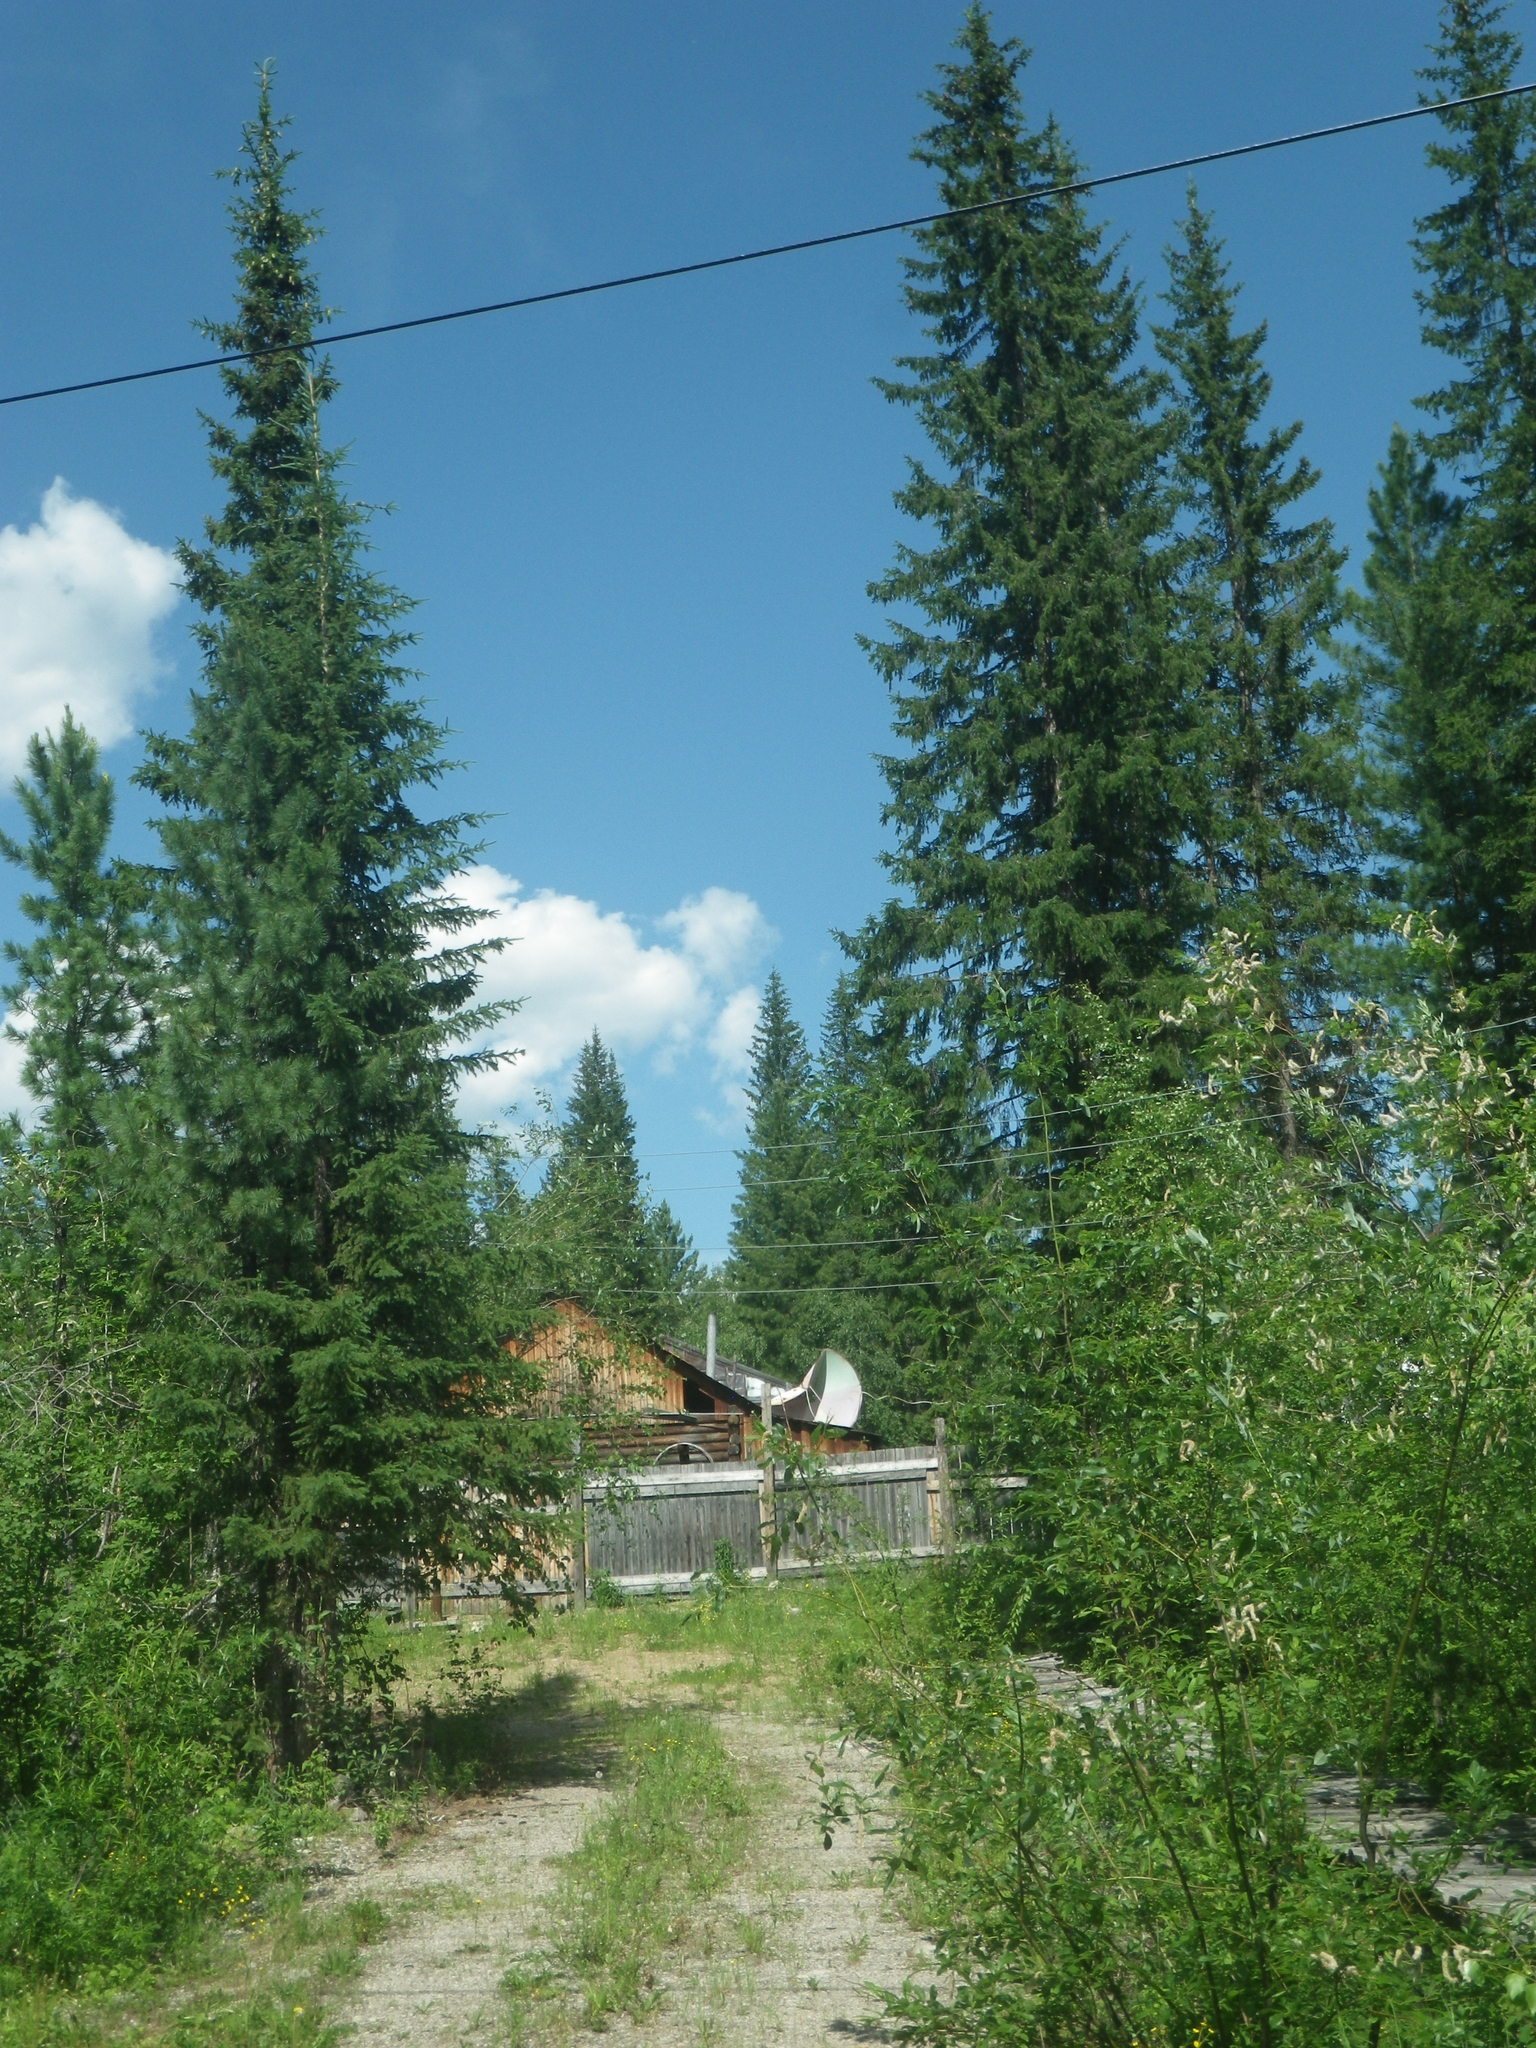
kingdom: Plantae
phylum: Tracheophyta
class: Pinopsida
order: Pinales
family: Pinaceae
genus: Picea
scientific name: Picea obovata
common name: Siberian spruce
